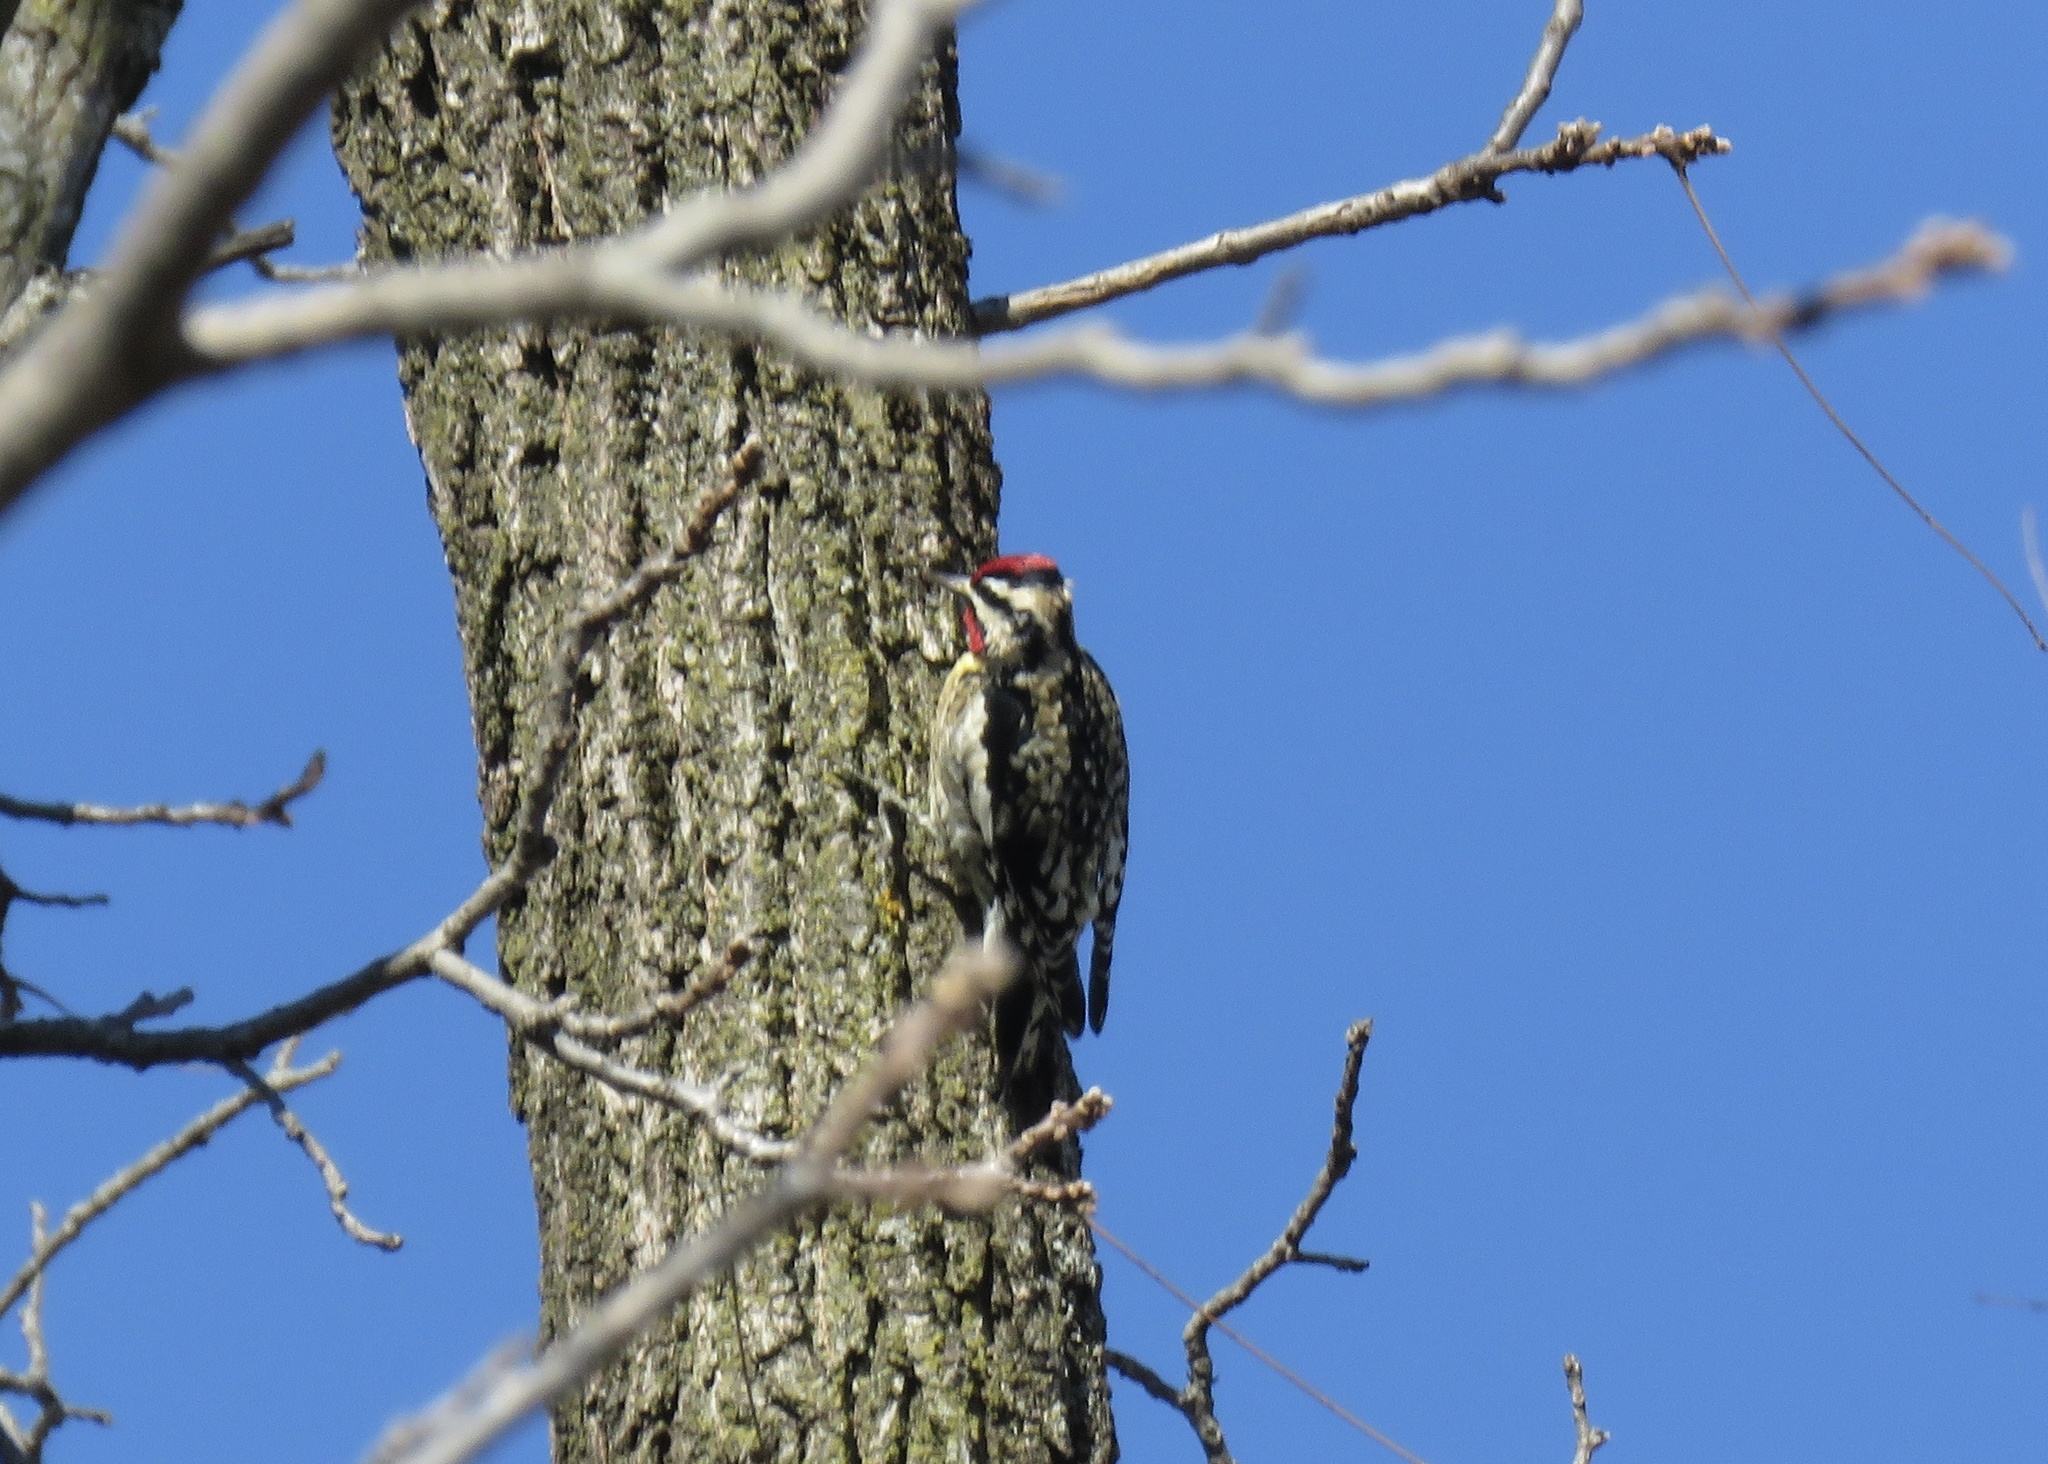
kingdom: Animalia
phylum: Chordata
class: Aves
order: Piciformes
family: Picidae
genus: Sphyrapicus
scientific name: Sphyrapicus varius
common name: Yellow-bellied sapsucker
